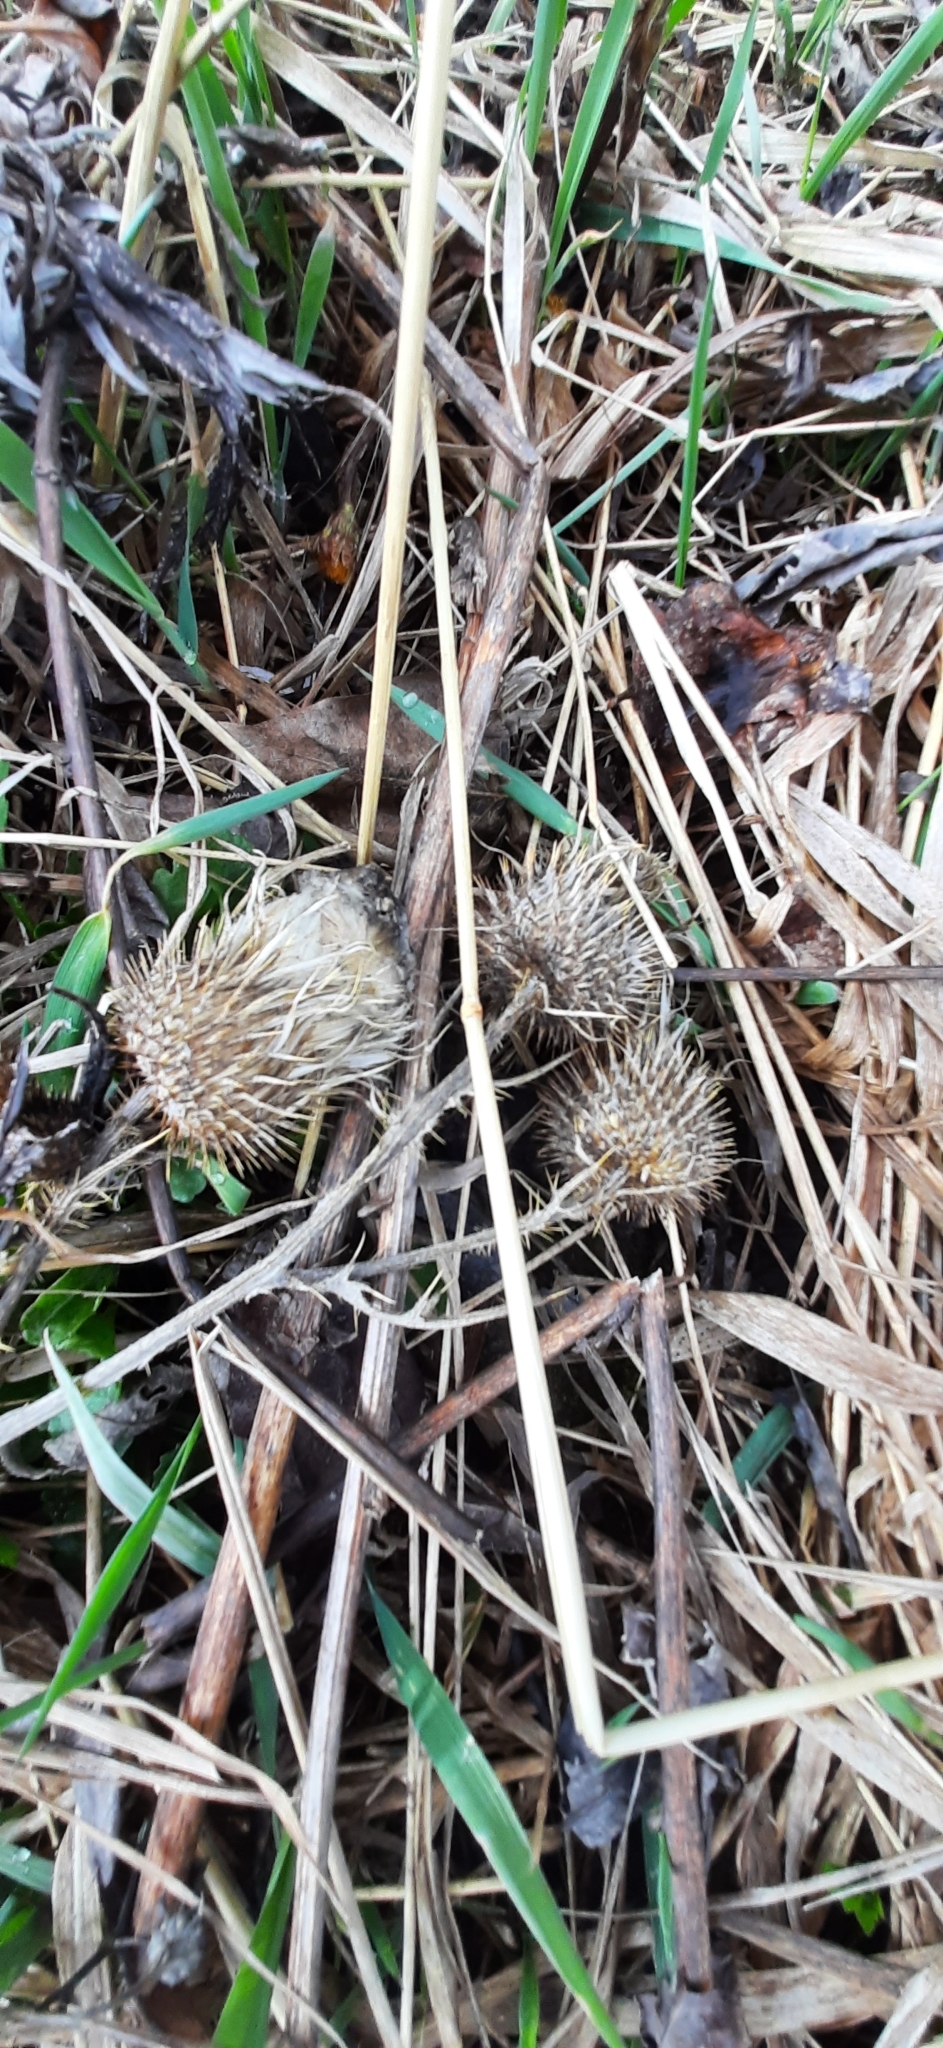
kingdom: Plantae
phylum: Tracheophyta
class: Magnoliopsida
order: Asterales
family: Asteraceae
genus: Cirsium
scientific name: Cirsium vulgare
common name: Bull thistle
